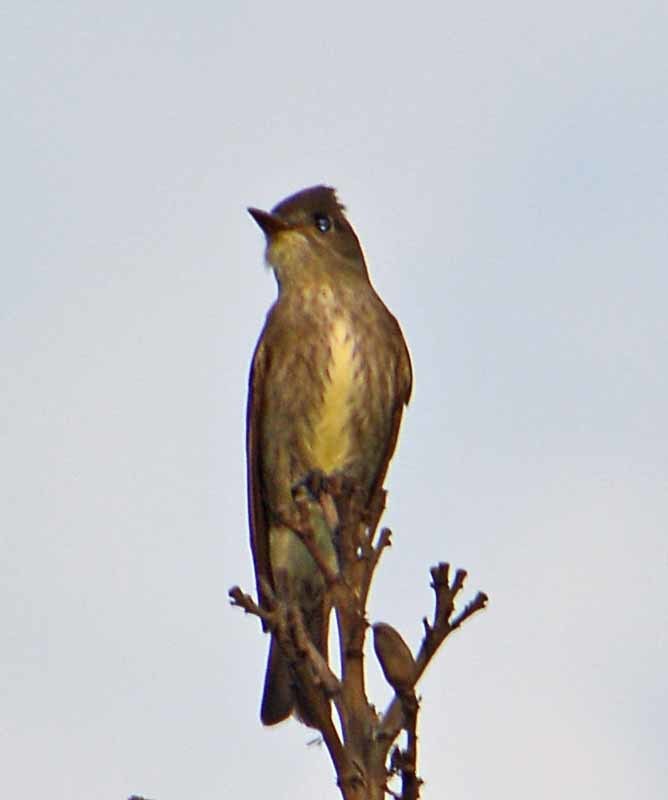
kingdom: Animalia
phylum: Chordata
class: Aves
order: Passeriformes
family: Tyrannidae
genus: Contopus
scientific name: Contopus cooperi
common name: Olive-sided flycatcher
